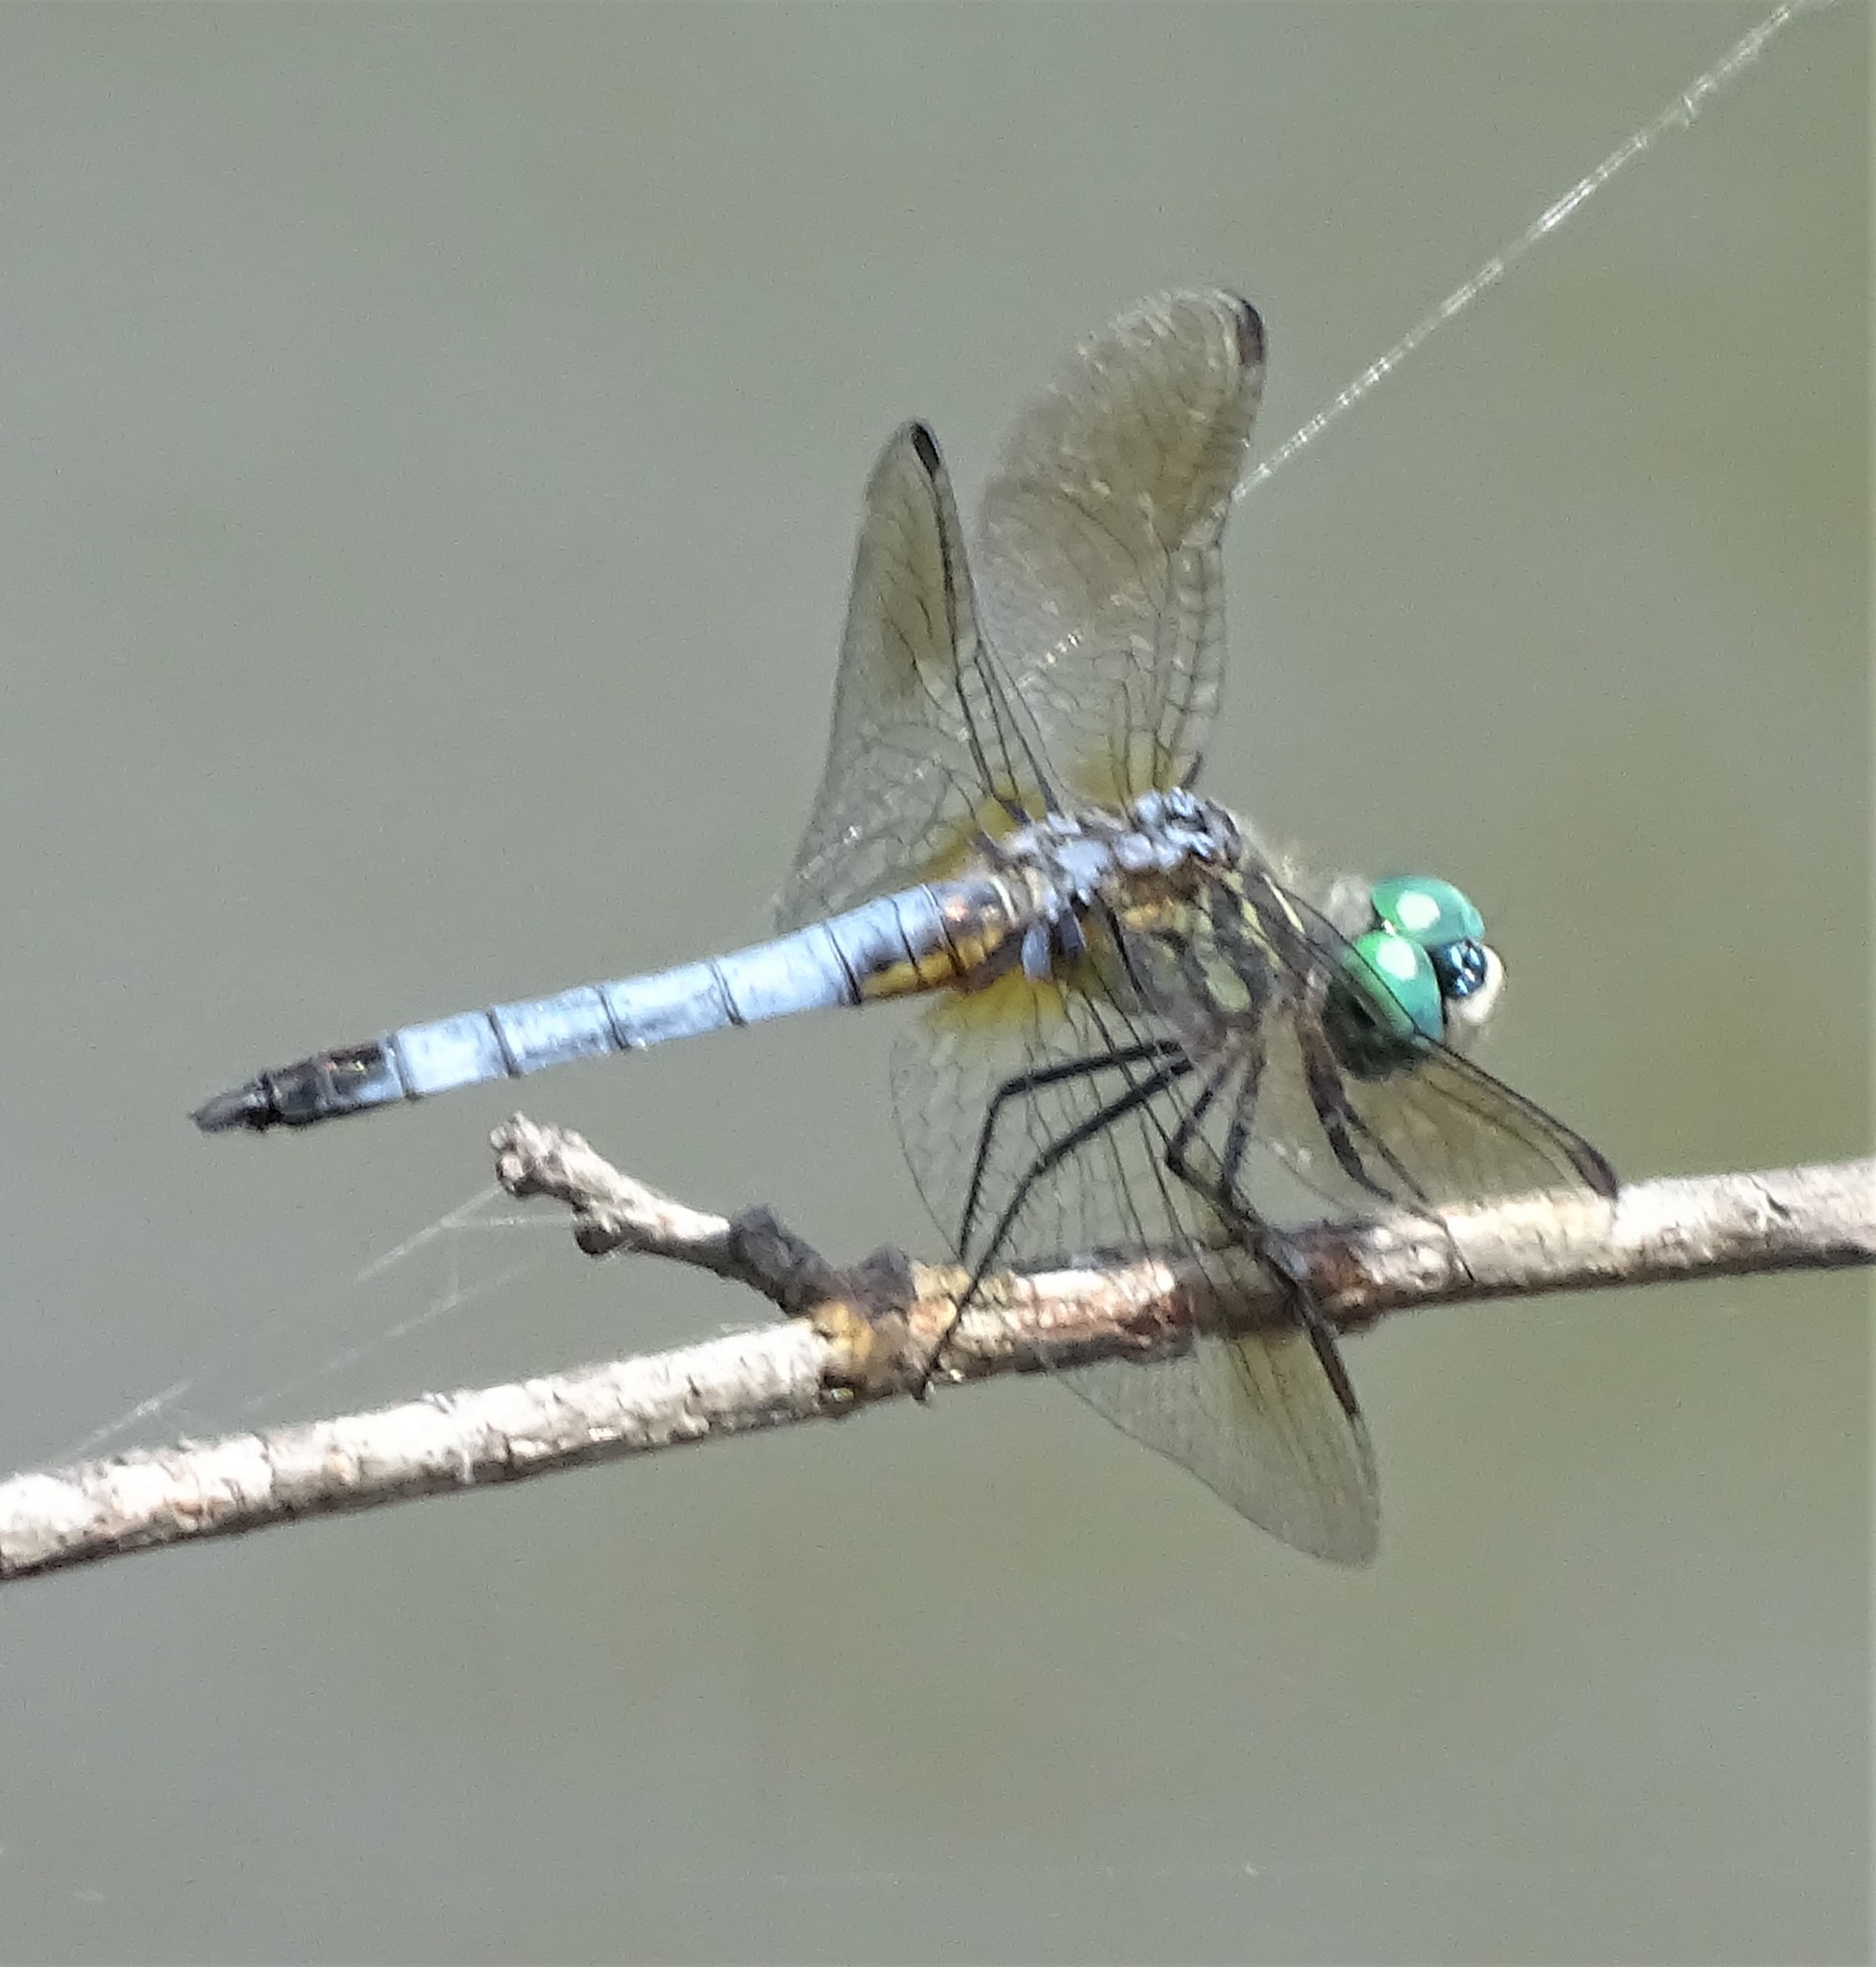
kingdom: Animalia
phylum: Arthropoda
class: Insecta
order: Odonata
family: Libellulidae
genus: Pachydiplax
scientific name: Pachydiplax longipennis
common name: Blue dasher
